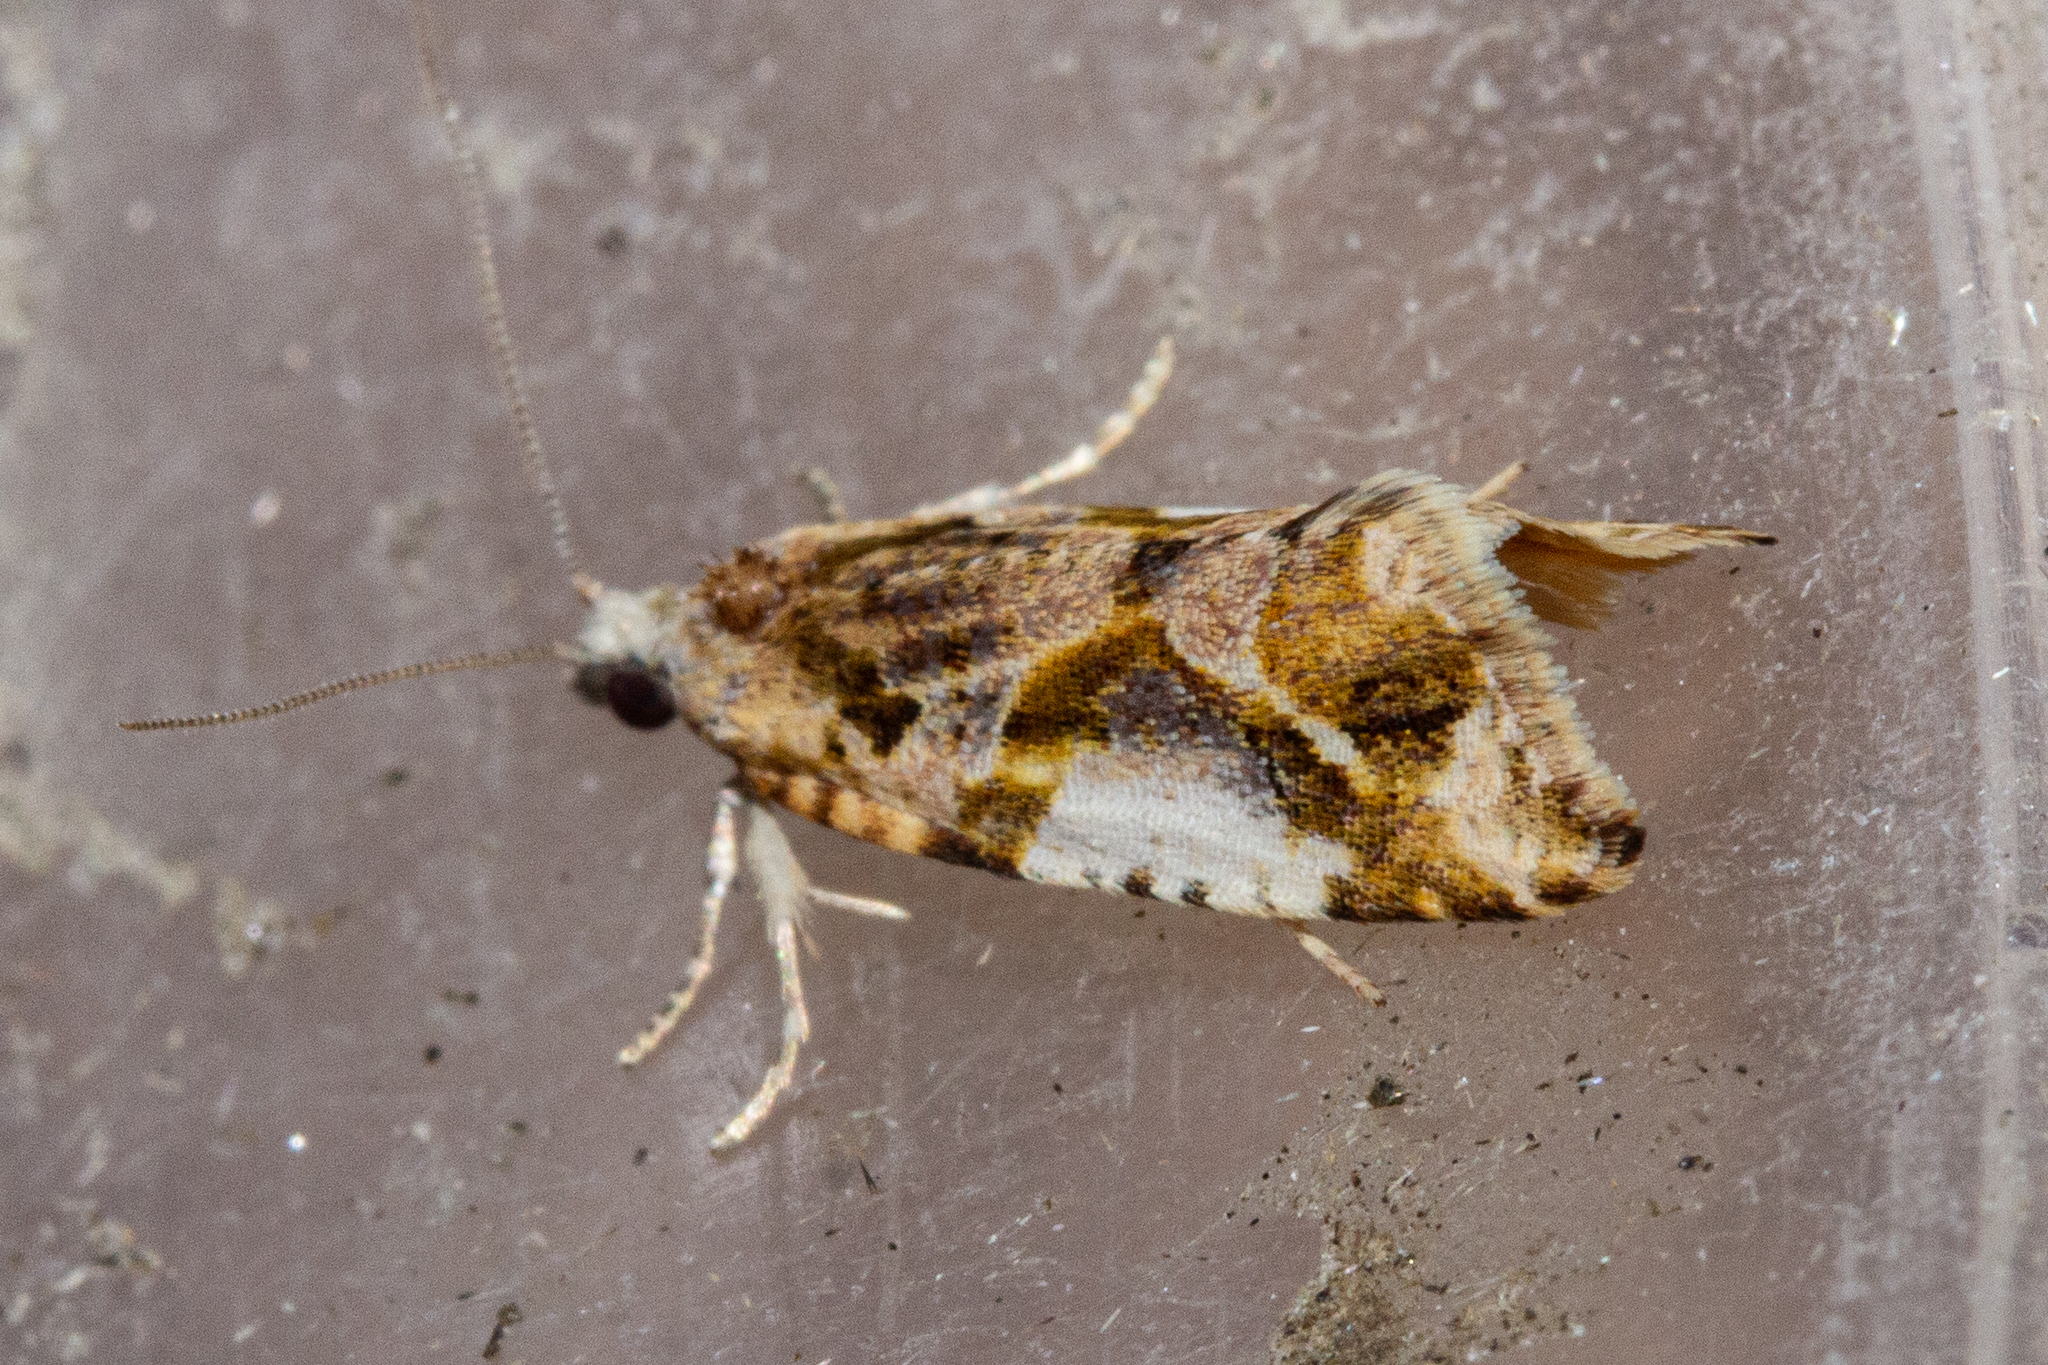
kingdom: Animalia
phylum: Arthropoda
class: Insecta
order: Lepidoptera
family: Tortricidae
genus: Pyrgotis
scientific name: Pyrgotis plagiatana
